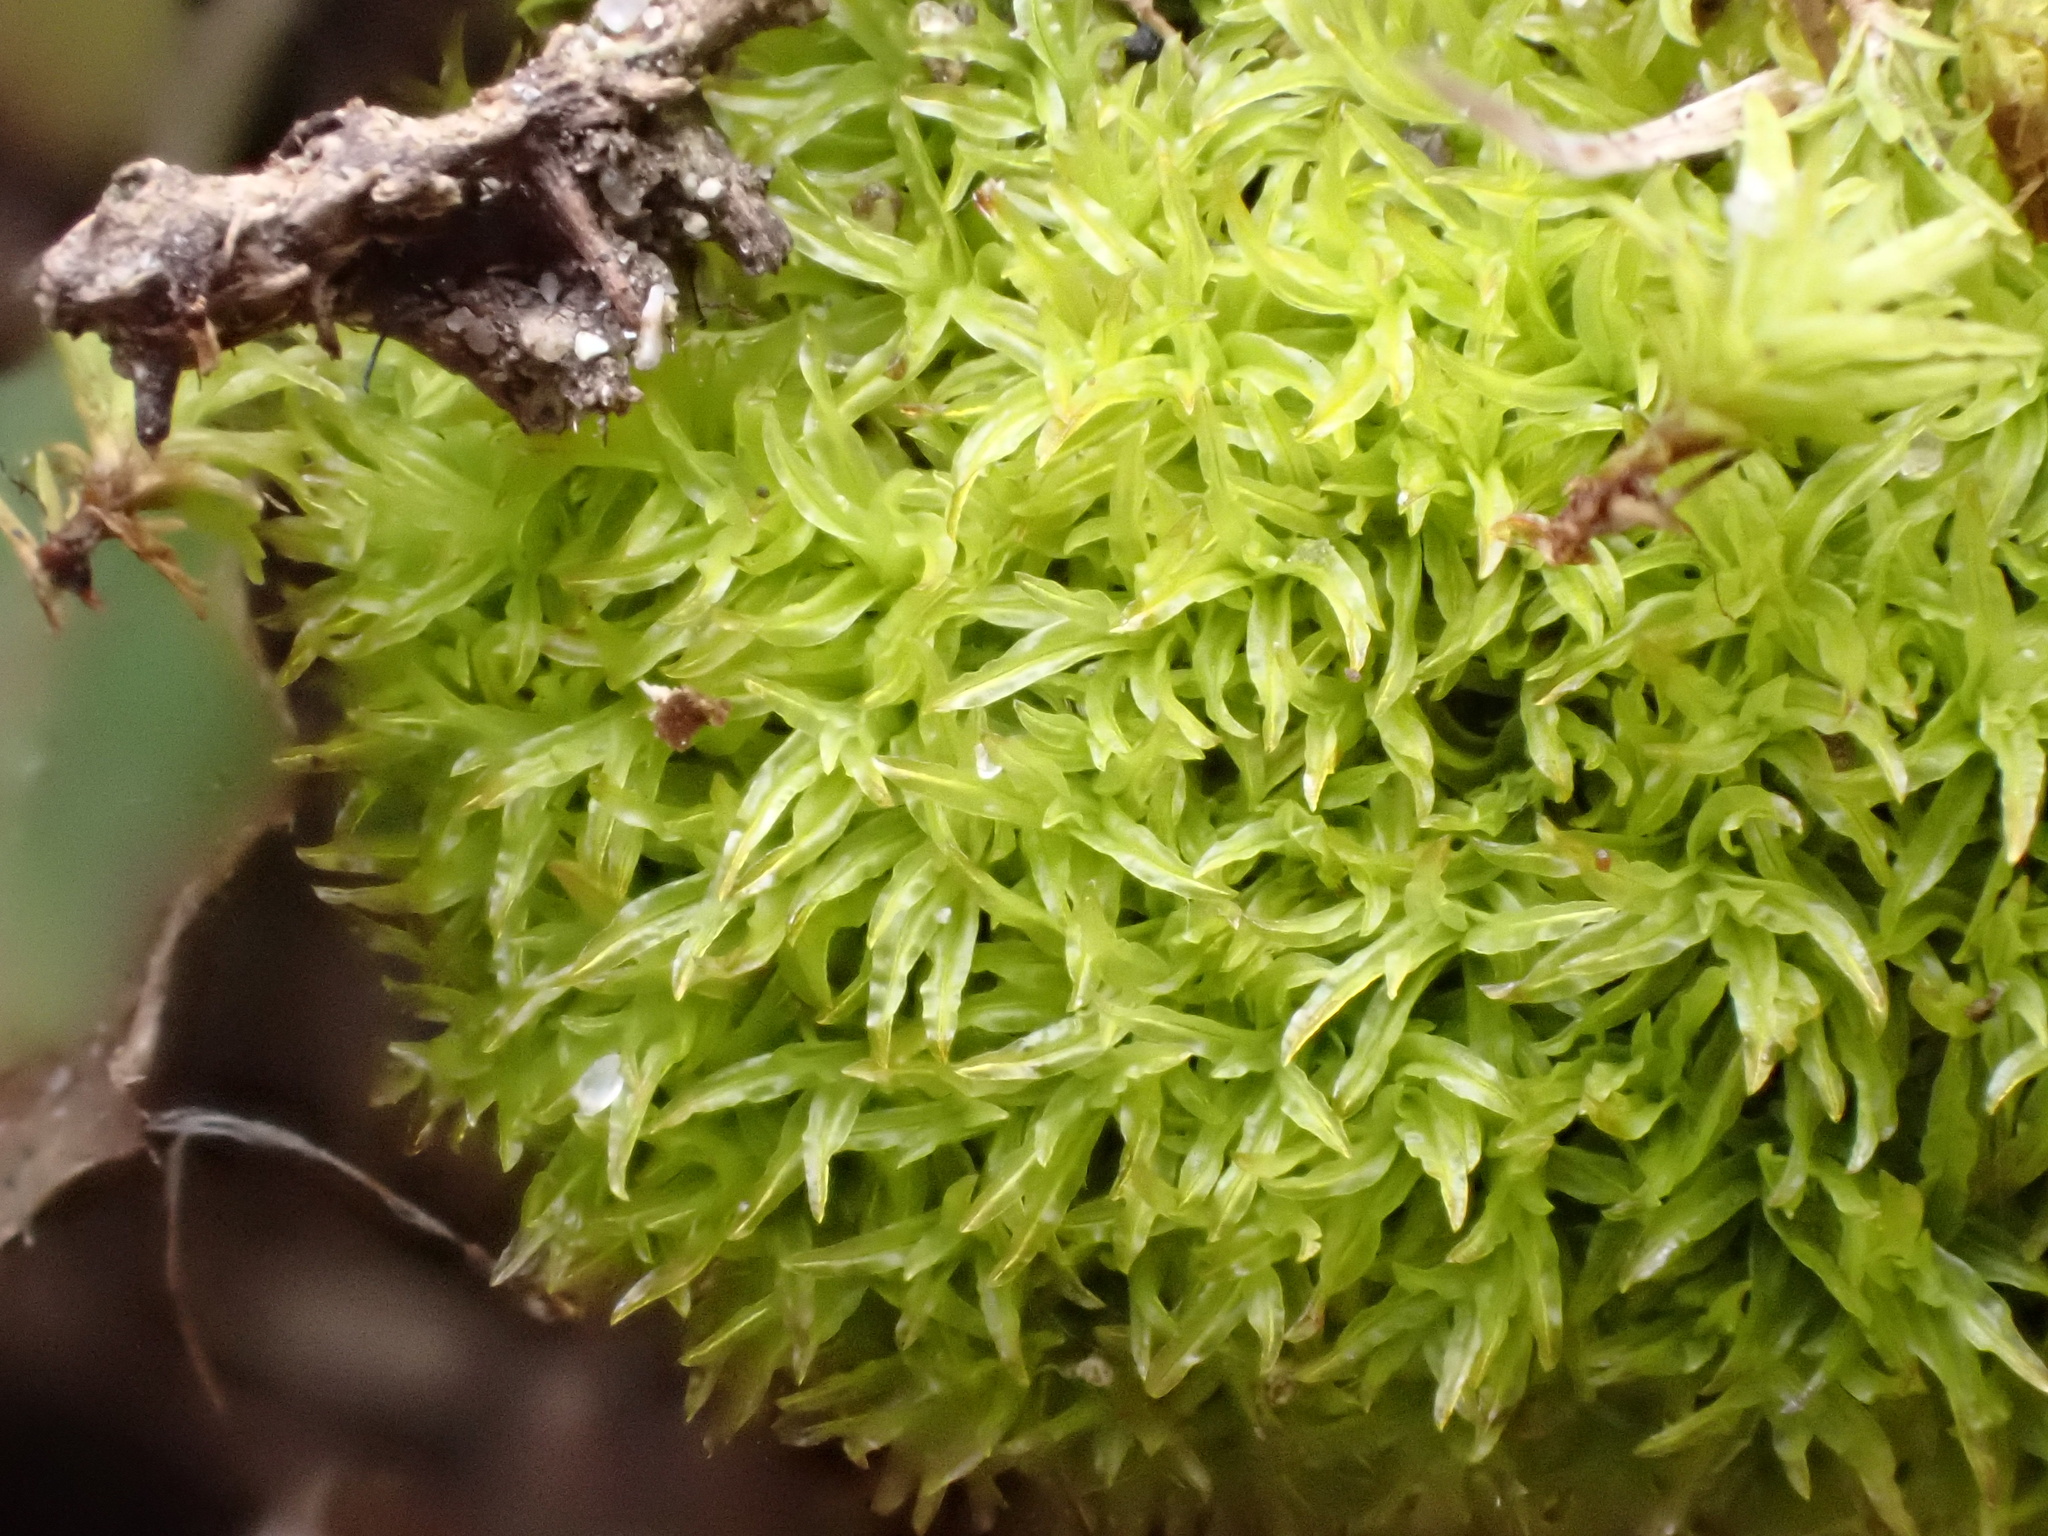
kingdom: Plantae
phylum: Bryophyta
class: Bryopsida
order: Pottiales
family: Pottiaceae
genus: Streblotrichum
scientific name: Streblotrichum commutatum
